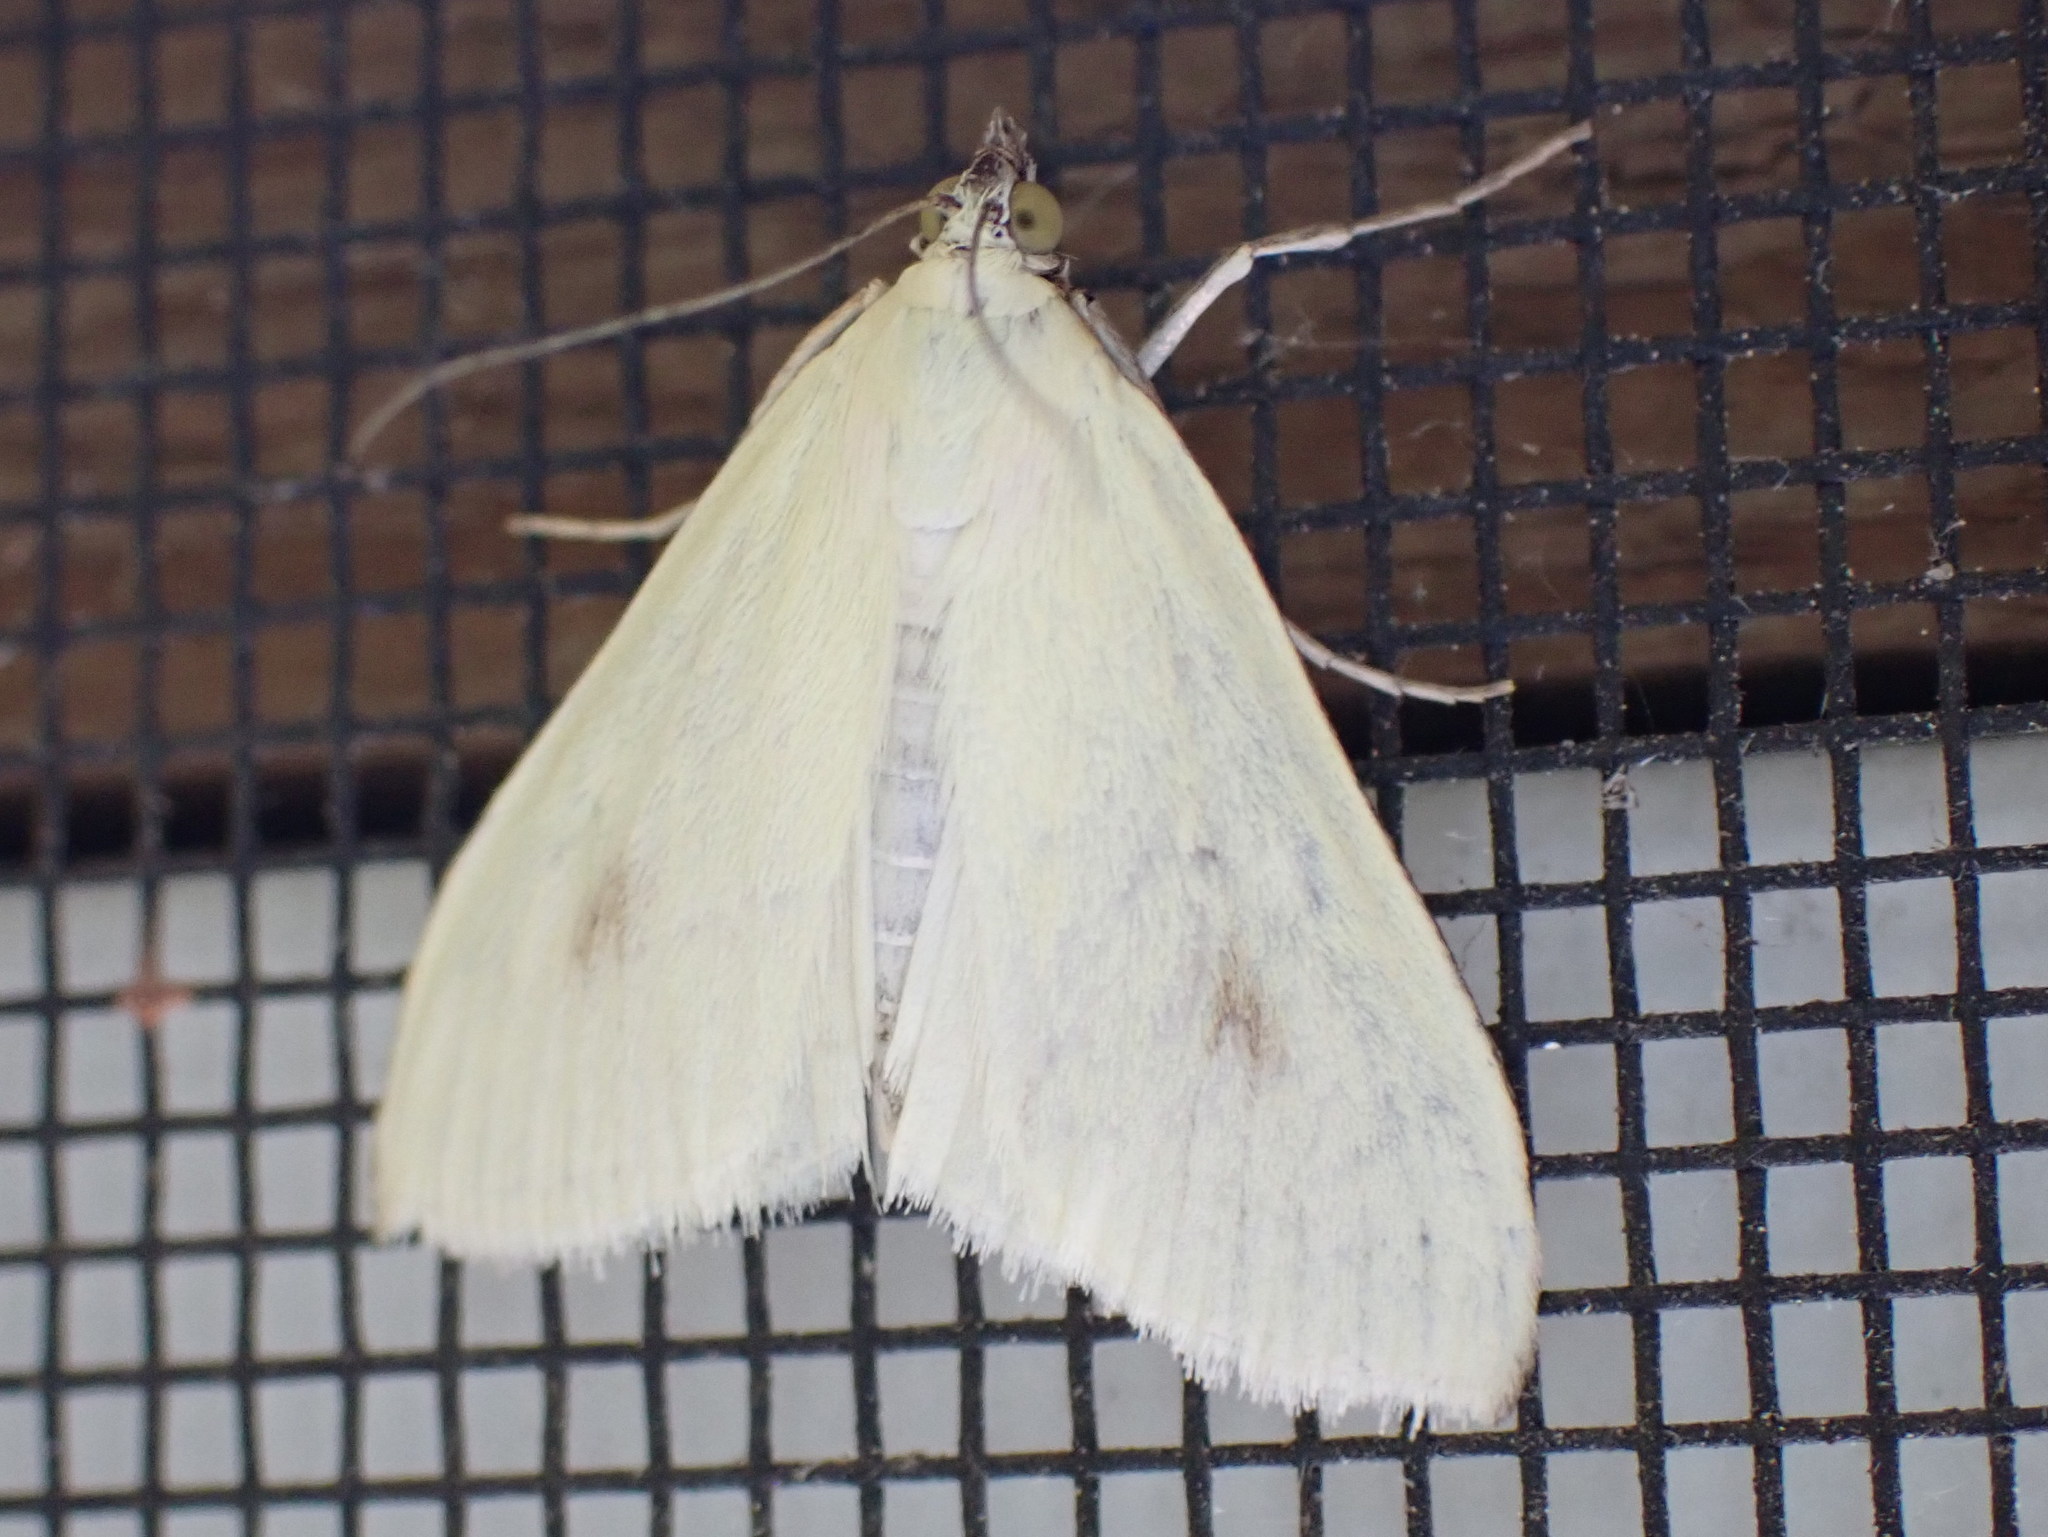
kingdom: Animalia
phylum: Arthropoda
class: Insecta
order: Lepidoptera
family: Crambidae
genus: Sitochroa
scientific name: Sitochroa palealis
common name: Greenish-yellow sitochroa moth
